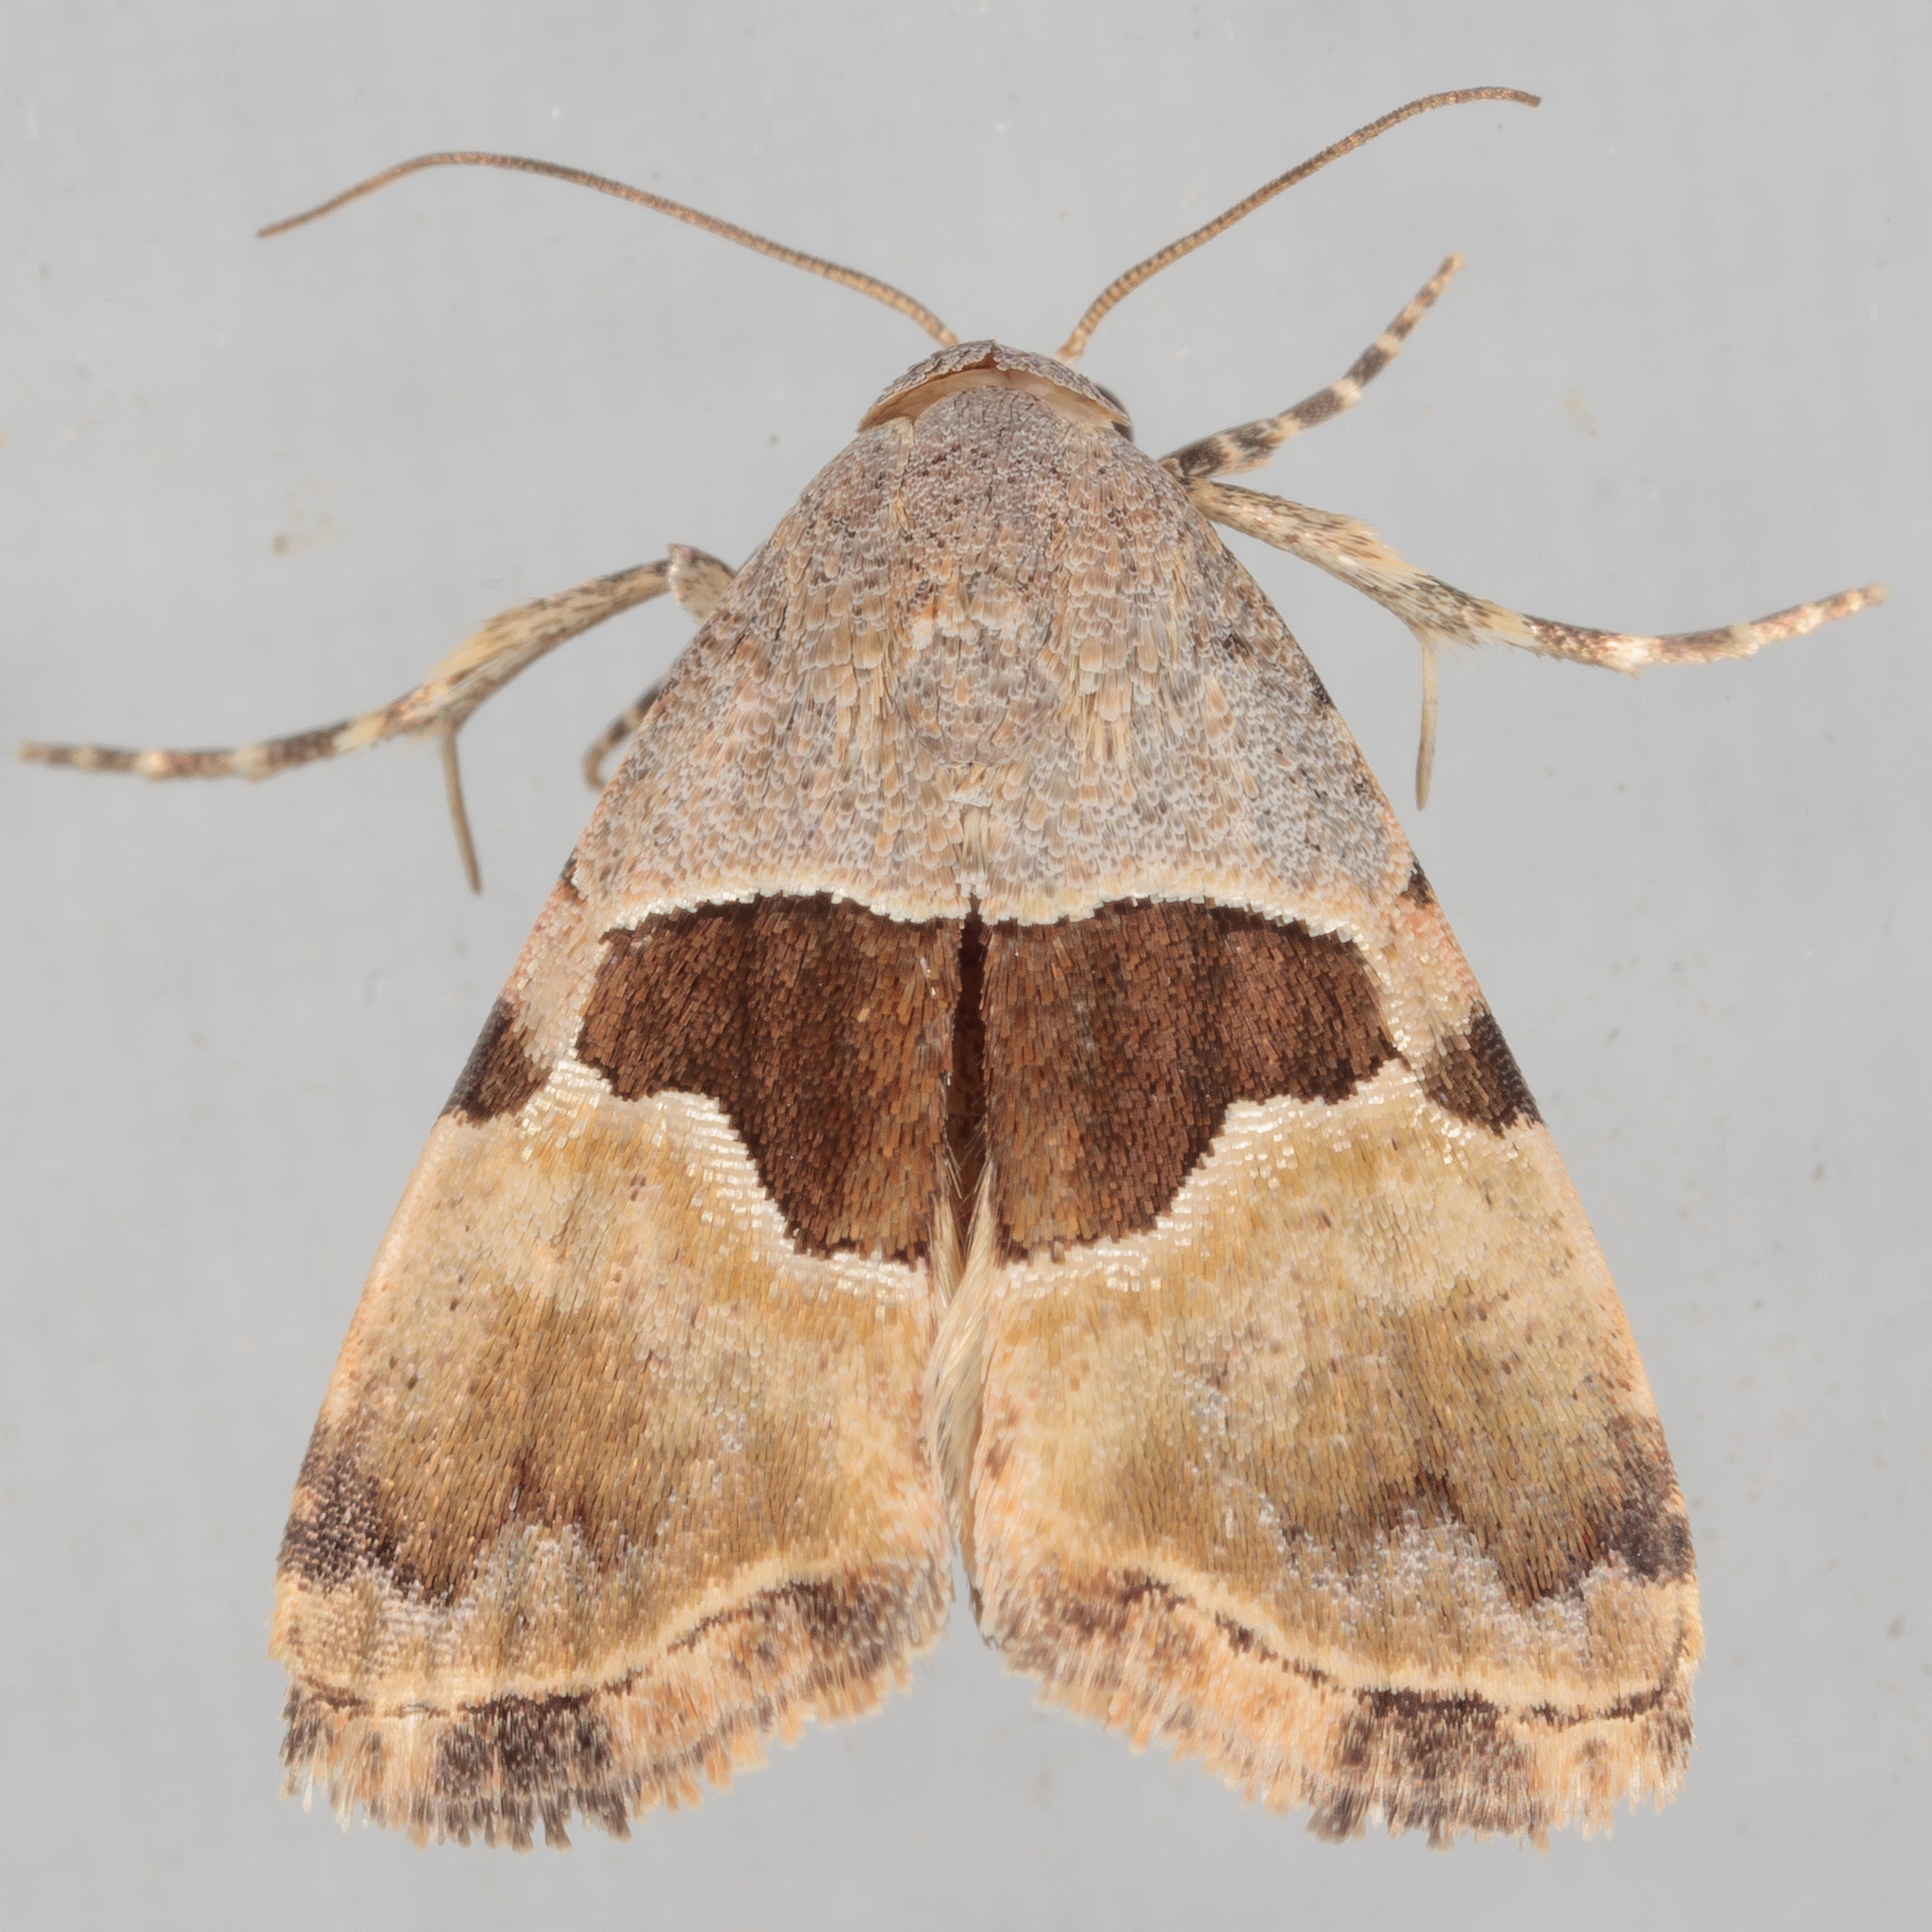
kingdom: Animalia
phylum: Arthropoda
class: Insecta
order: Lepidoptera
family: Noctuidae
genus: Cobubatha
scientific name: Cobubatha lixiva
